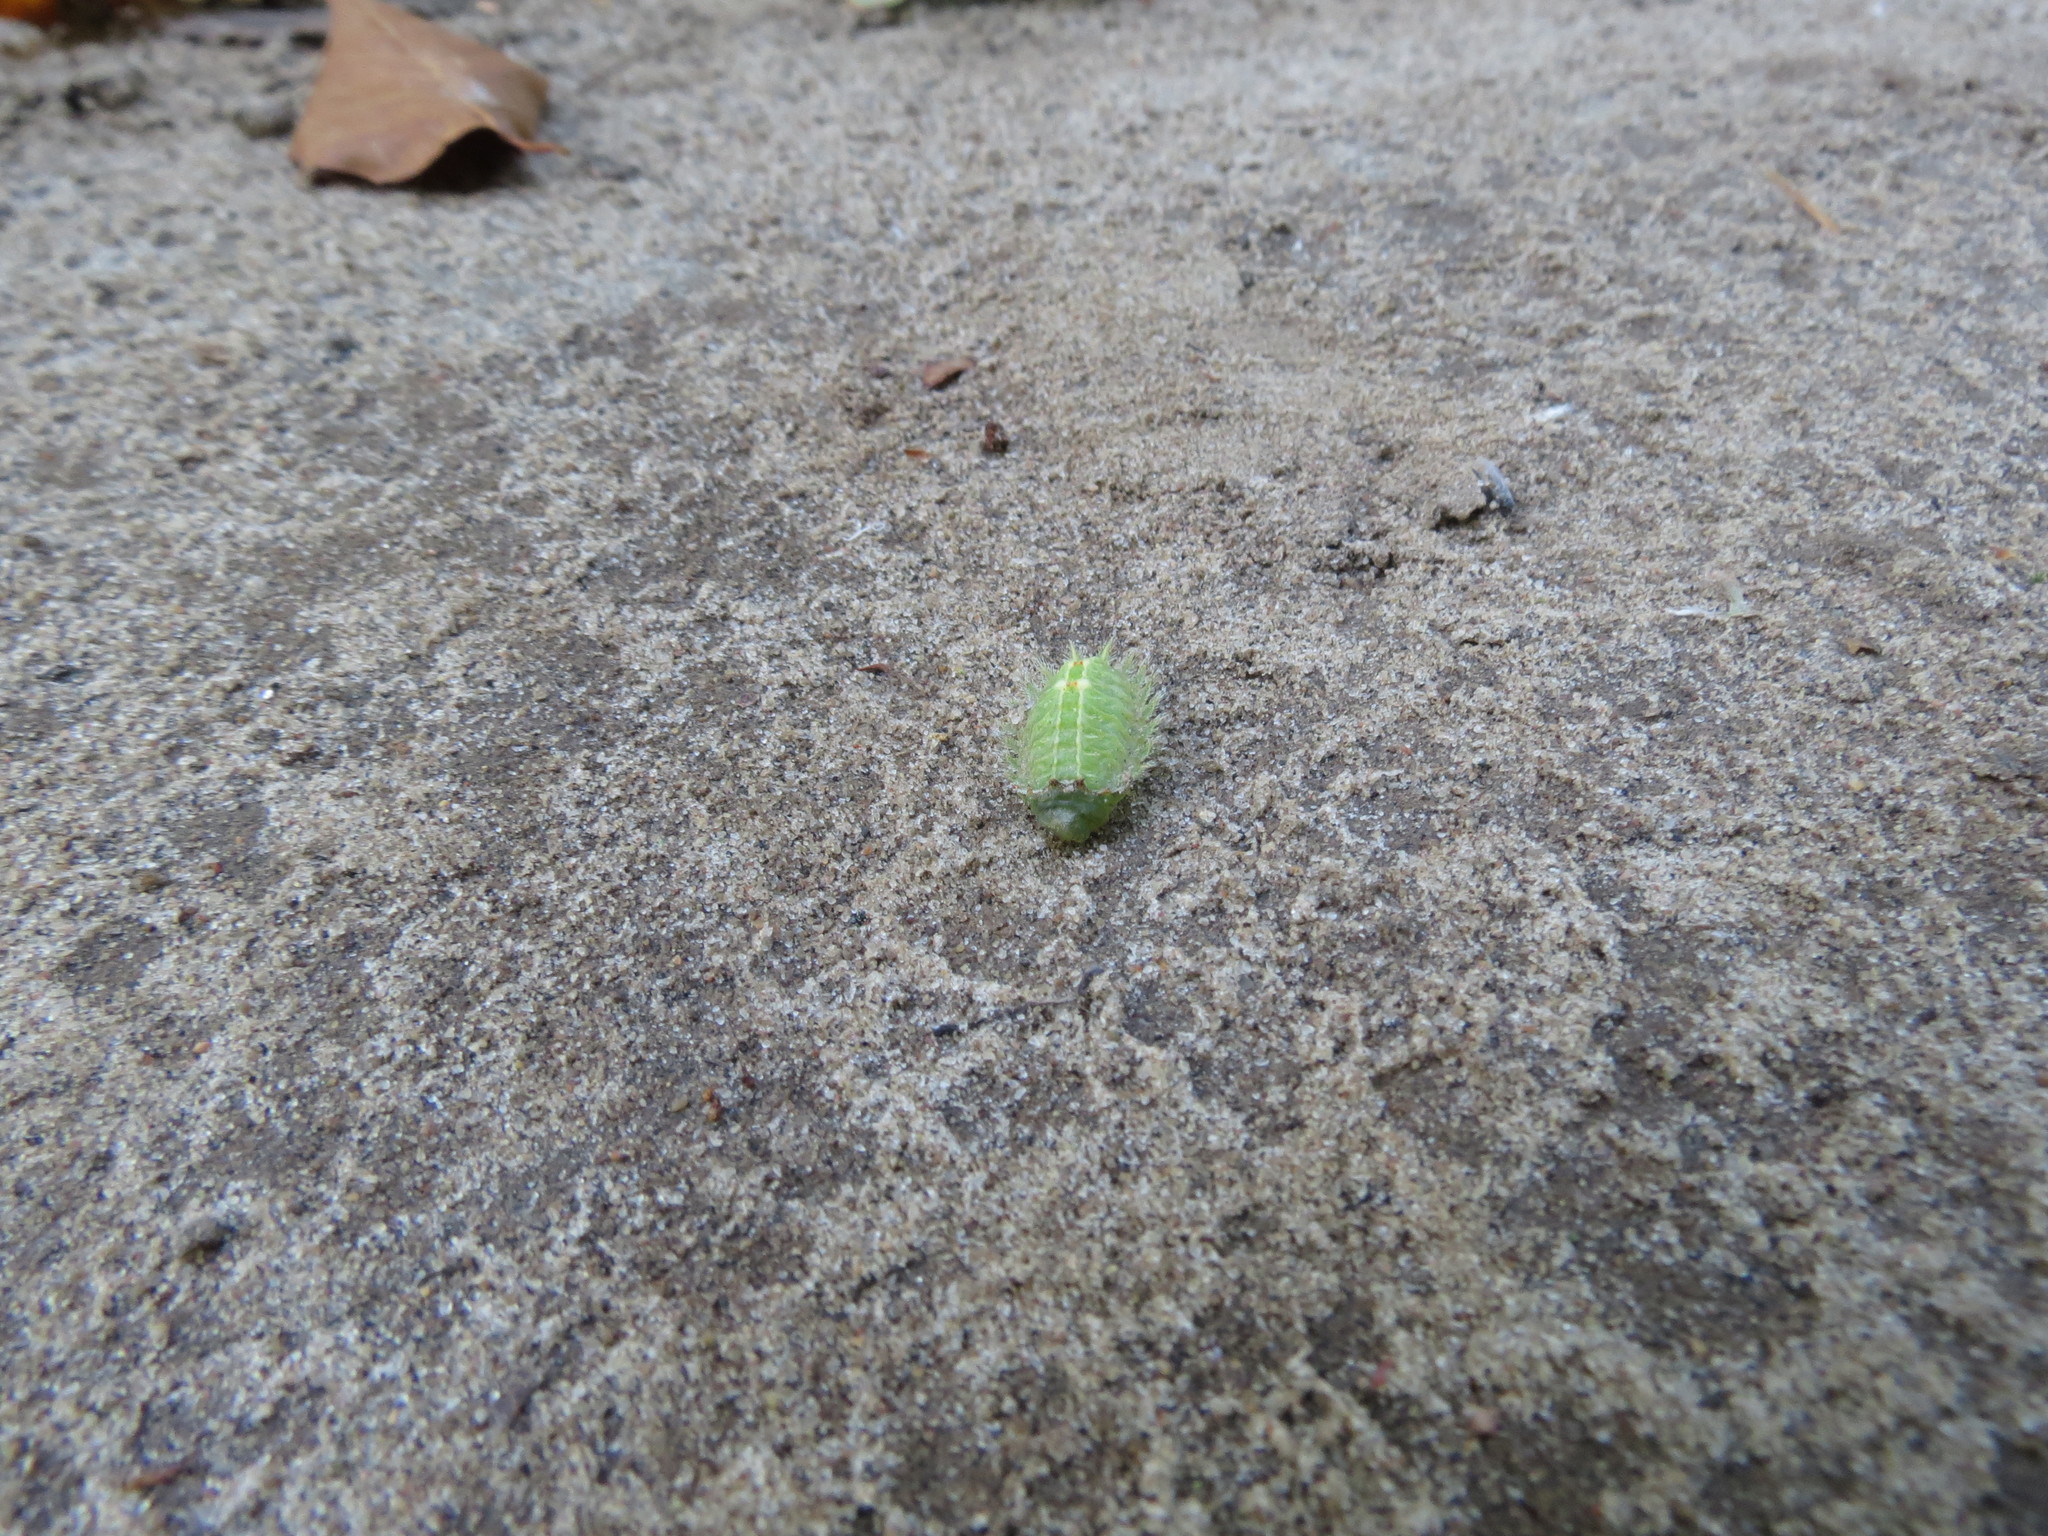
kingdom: Animalia
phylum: Arthropoda
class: Insecta
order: Lepidoptera
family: Limacodidae
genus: Isa
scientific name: Isa textula
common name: Crowned slug moth
